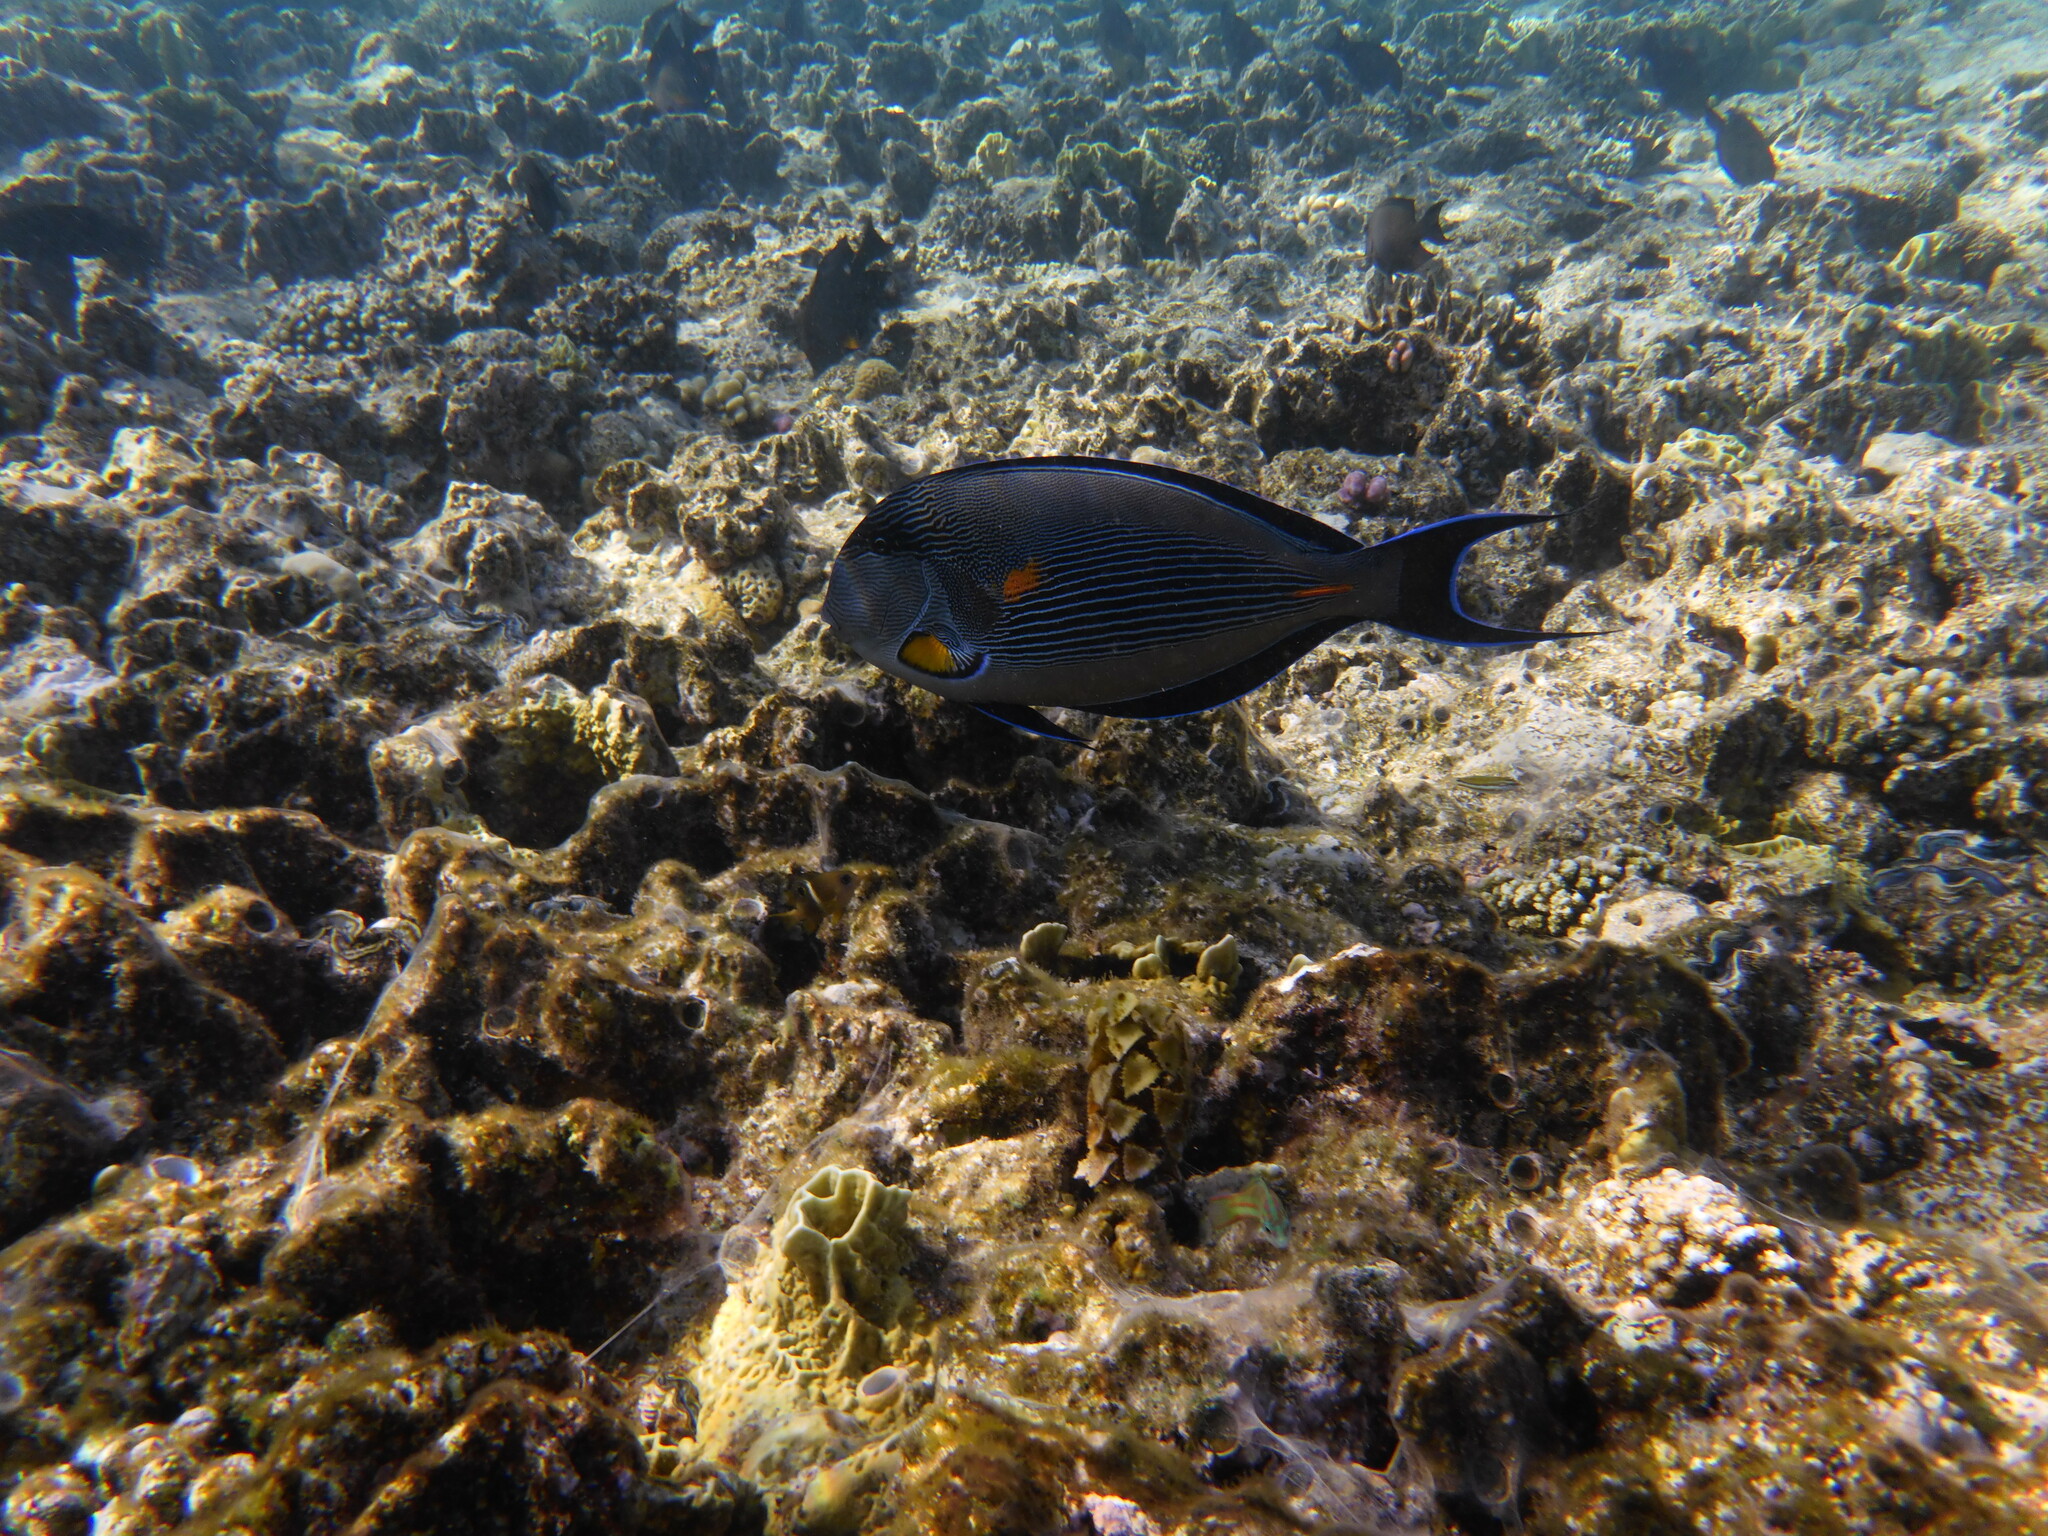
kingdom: Animalia
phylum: Chordata
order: Perciformes
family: Acanthuridae
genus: Acanthurus
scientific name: Acanthurus sohal
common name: Red sea surgeonfish
